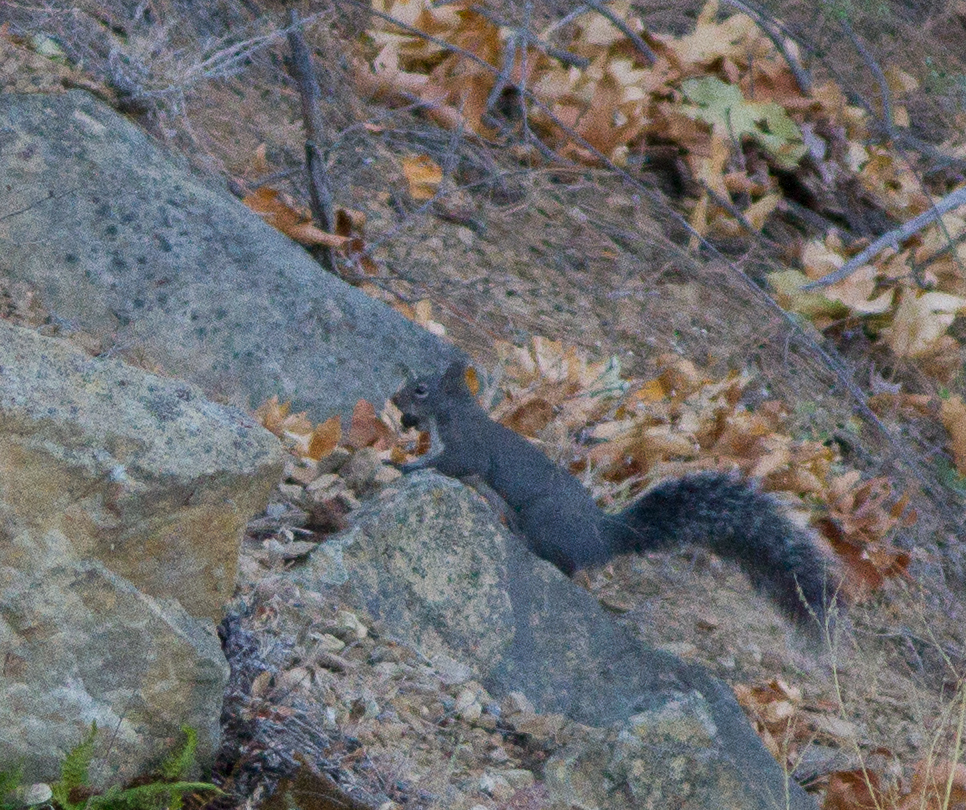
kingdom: Animalia
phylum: Chordata
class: Mammalia
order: Rodentia
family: Sciuridae
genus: Sciurus
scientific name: Sciurus griseus
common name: Western gray squirrel
